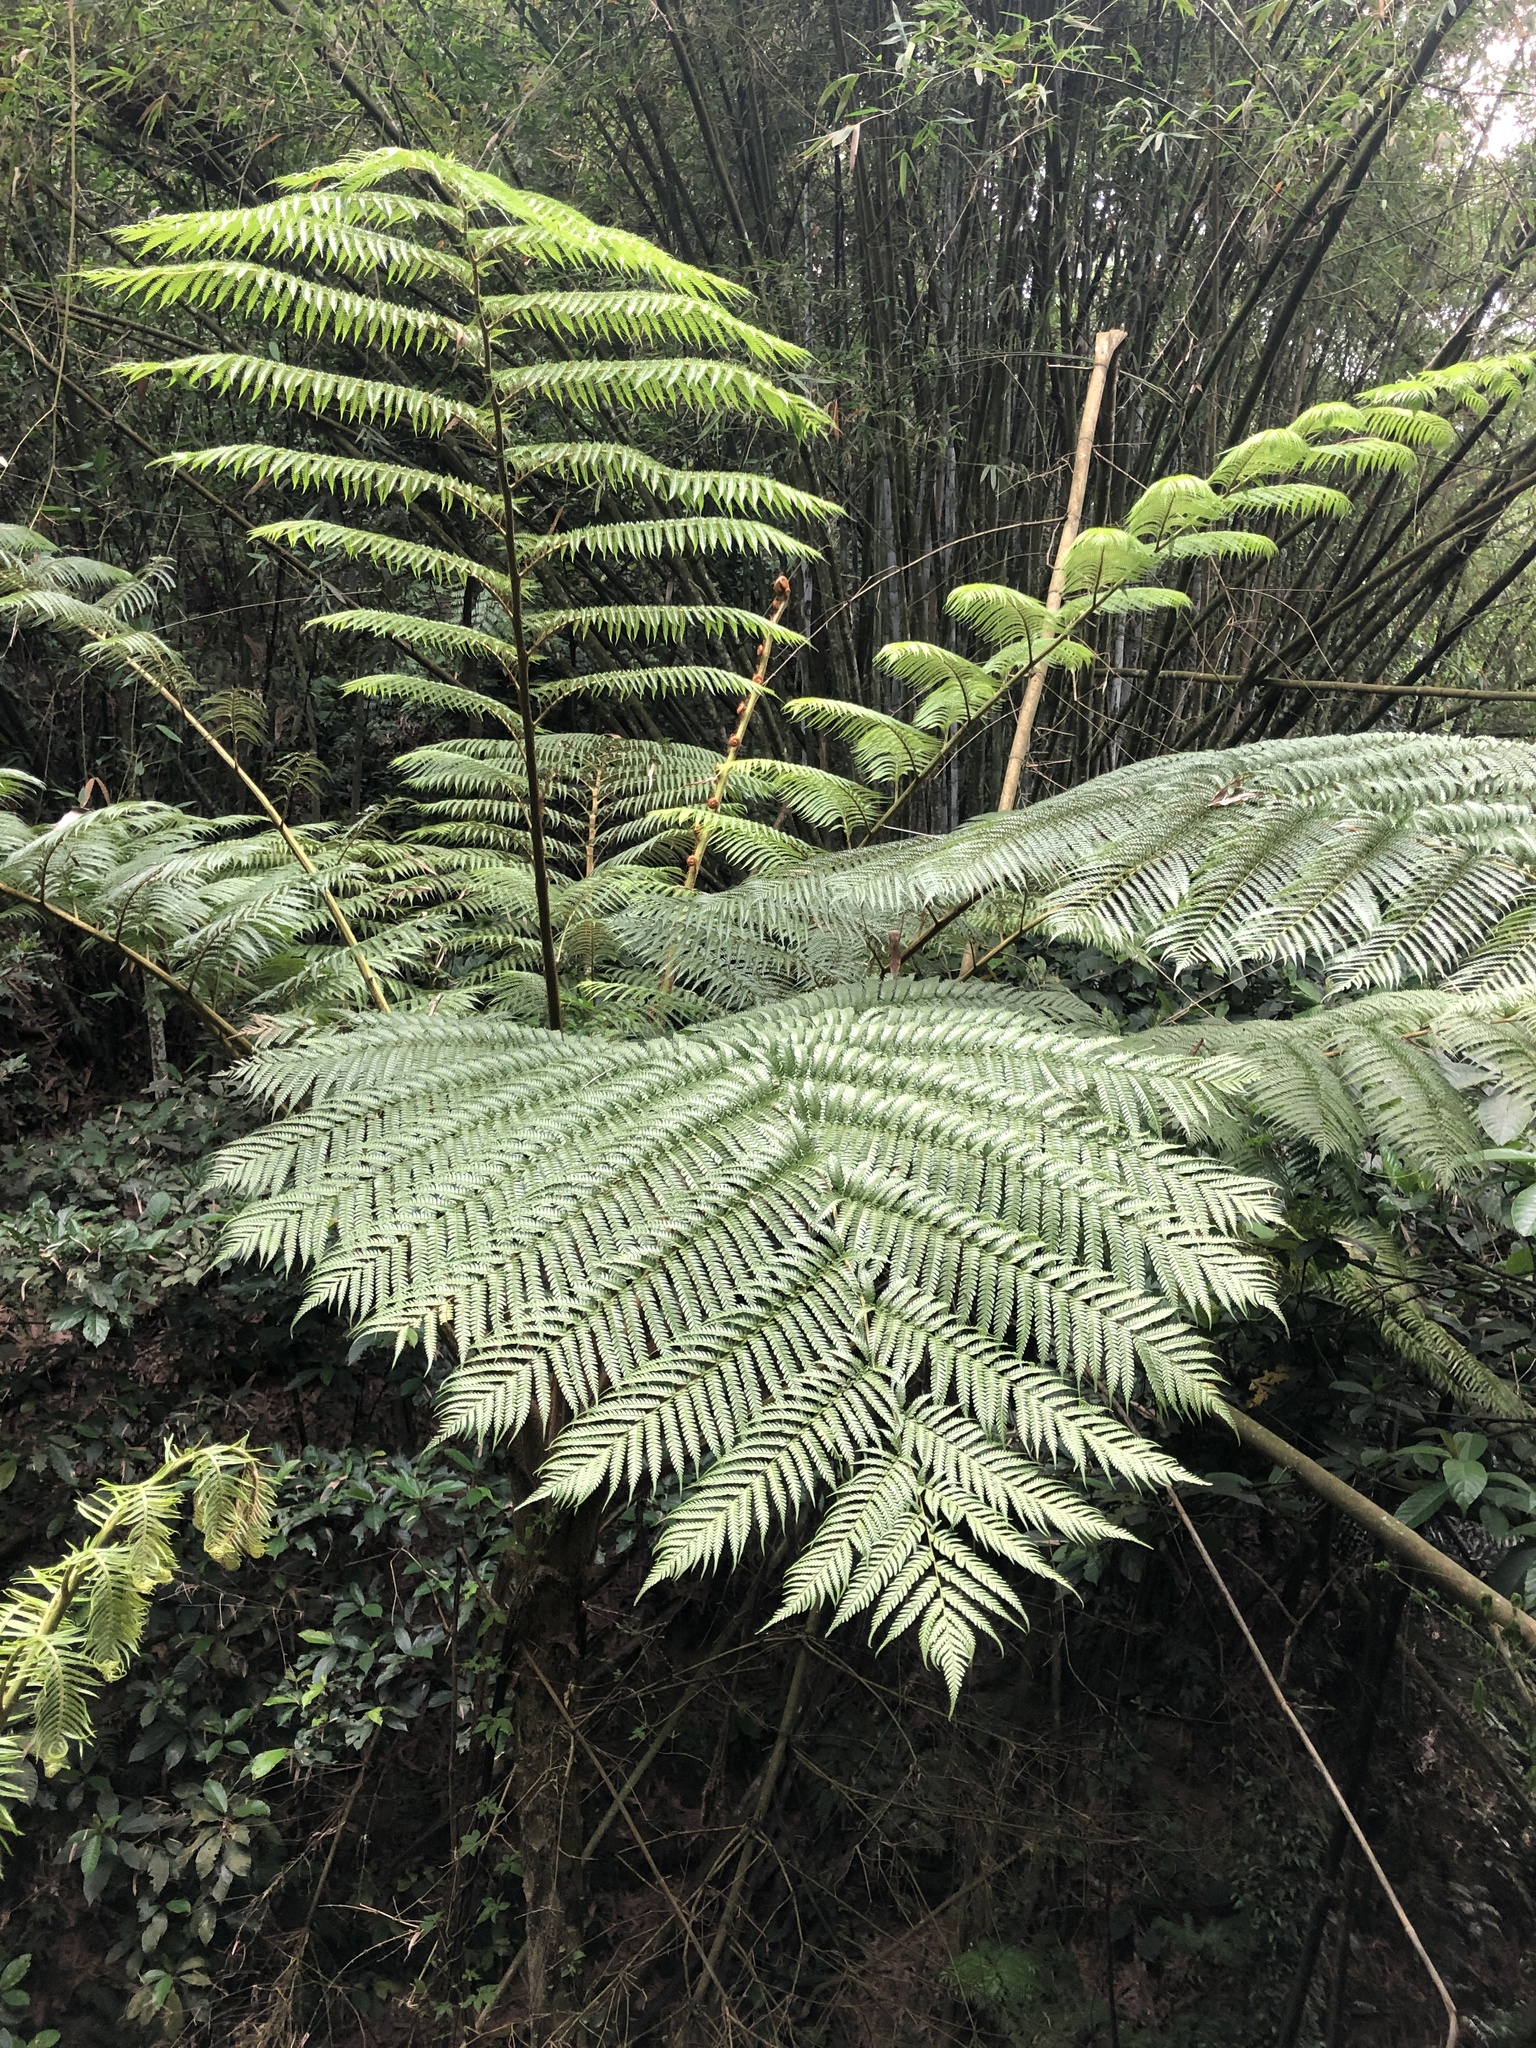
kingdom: Plantae
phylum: Tracheophyta
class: Polypodiopsida
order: Cyatheales
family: Cyatheaceae
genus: Alsophila
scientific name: Alsophila lepifera
